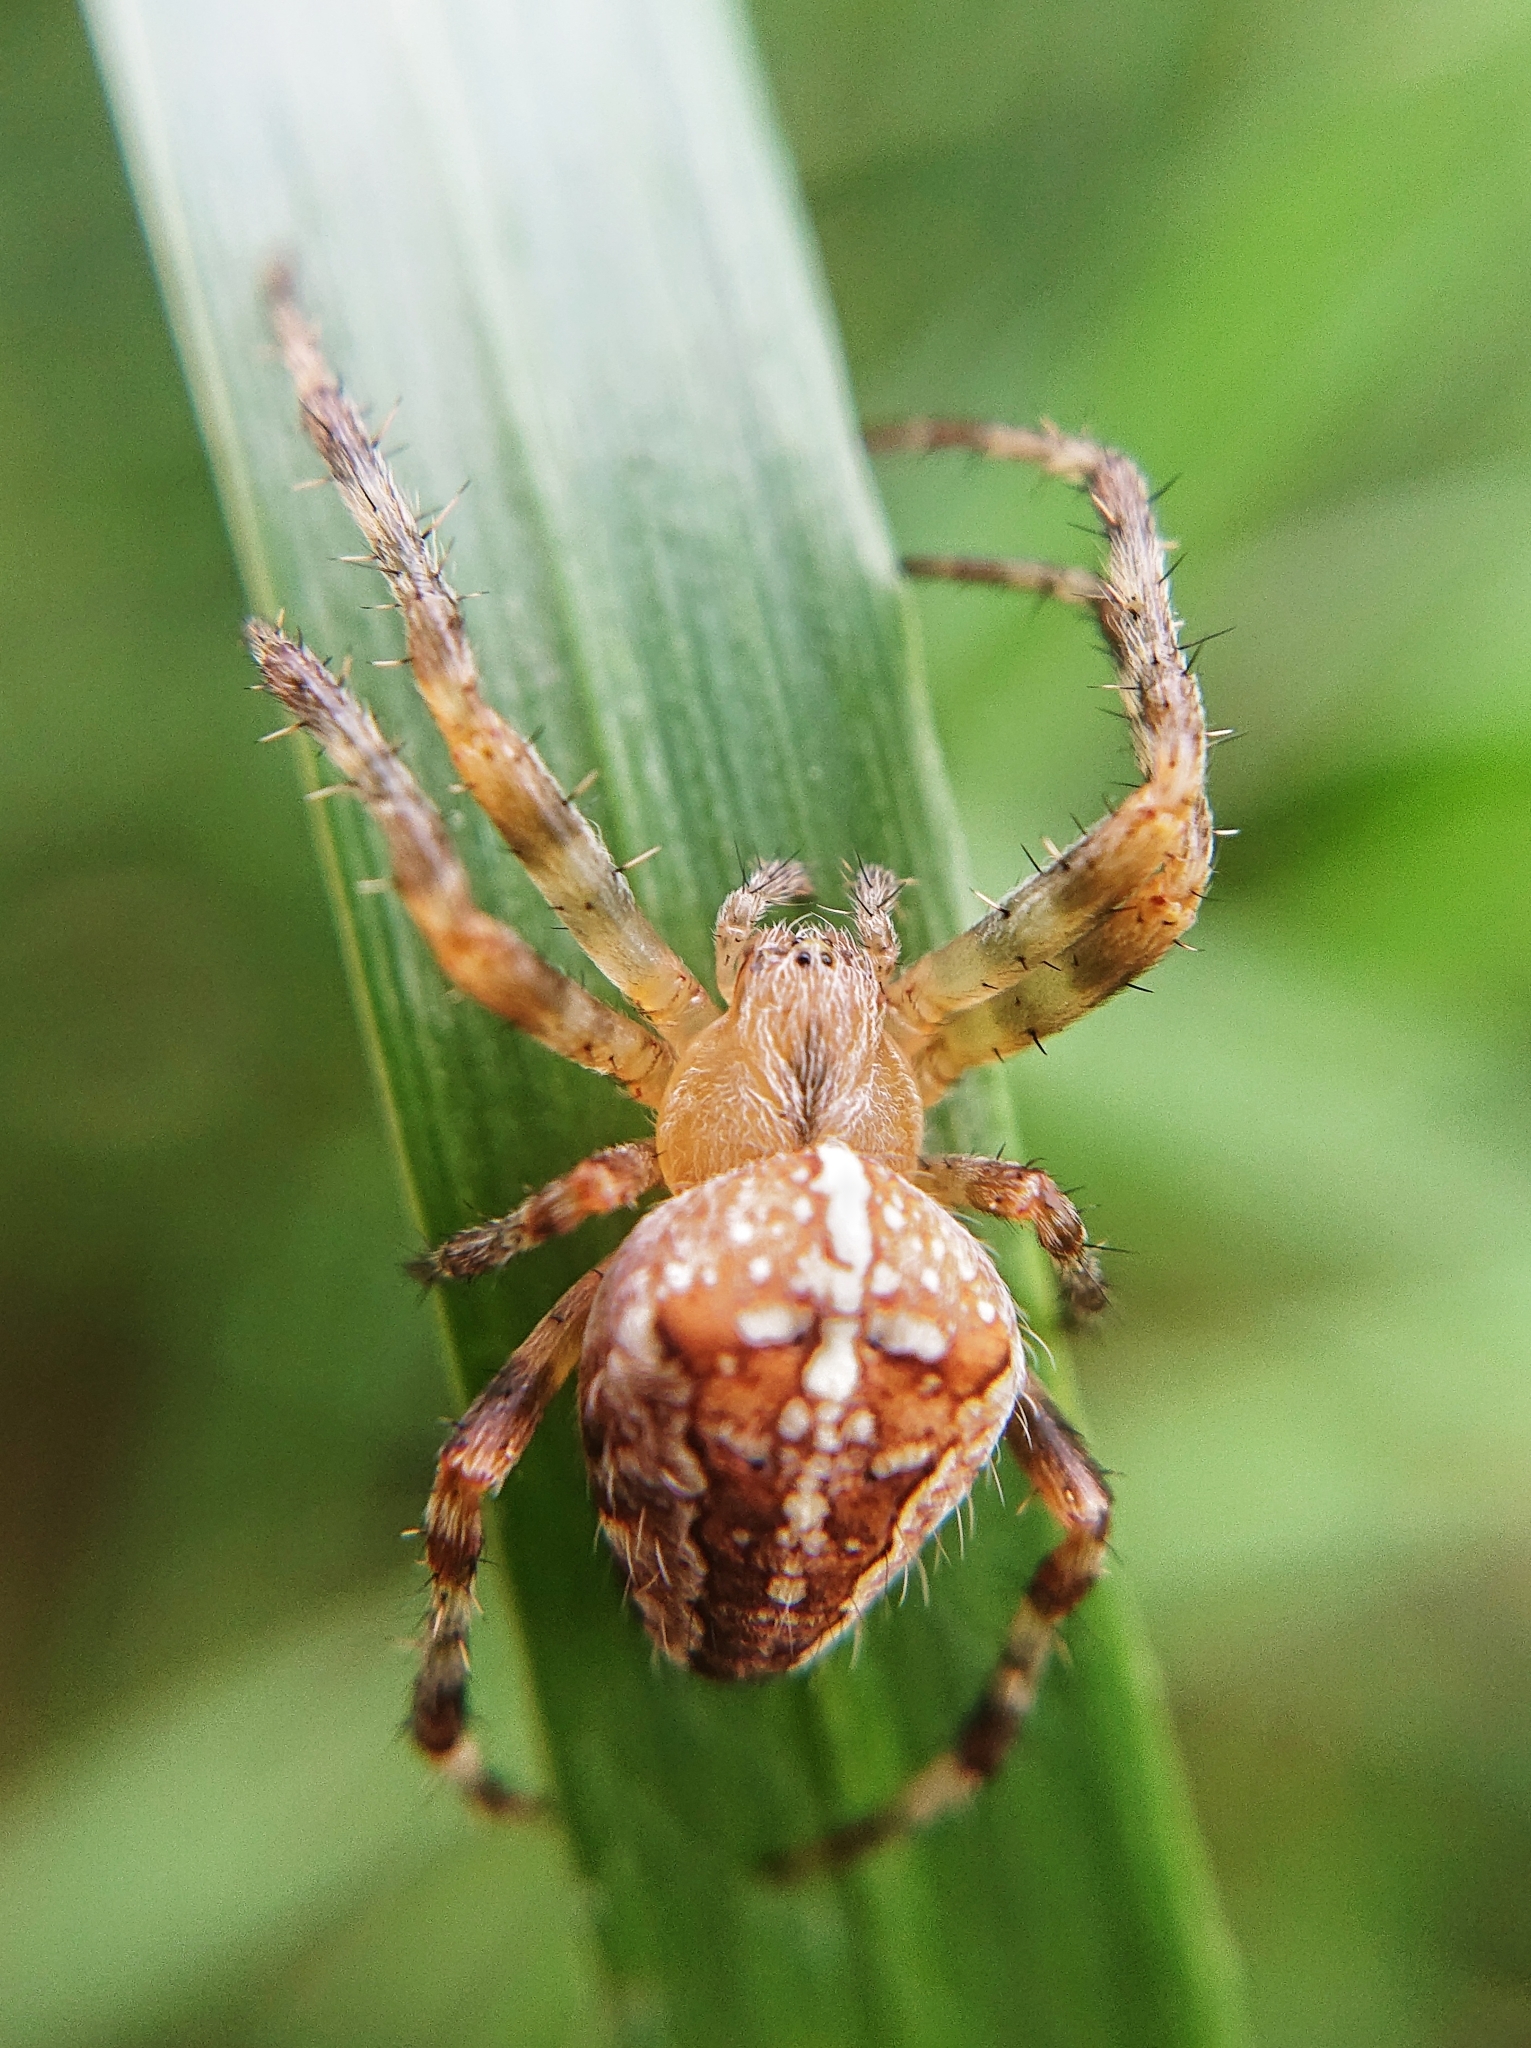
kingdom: Animalia
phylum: Arthropoda
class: Arachnida
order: Araneae
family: Araneidae
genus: Araneus
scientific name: Araneus diadematus
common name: Cross orbweaver
